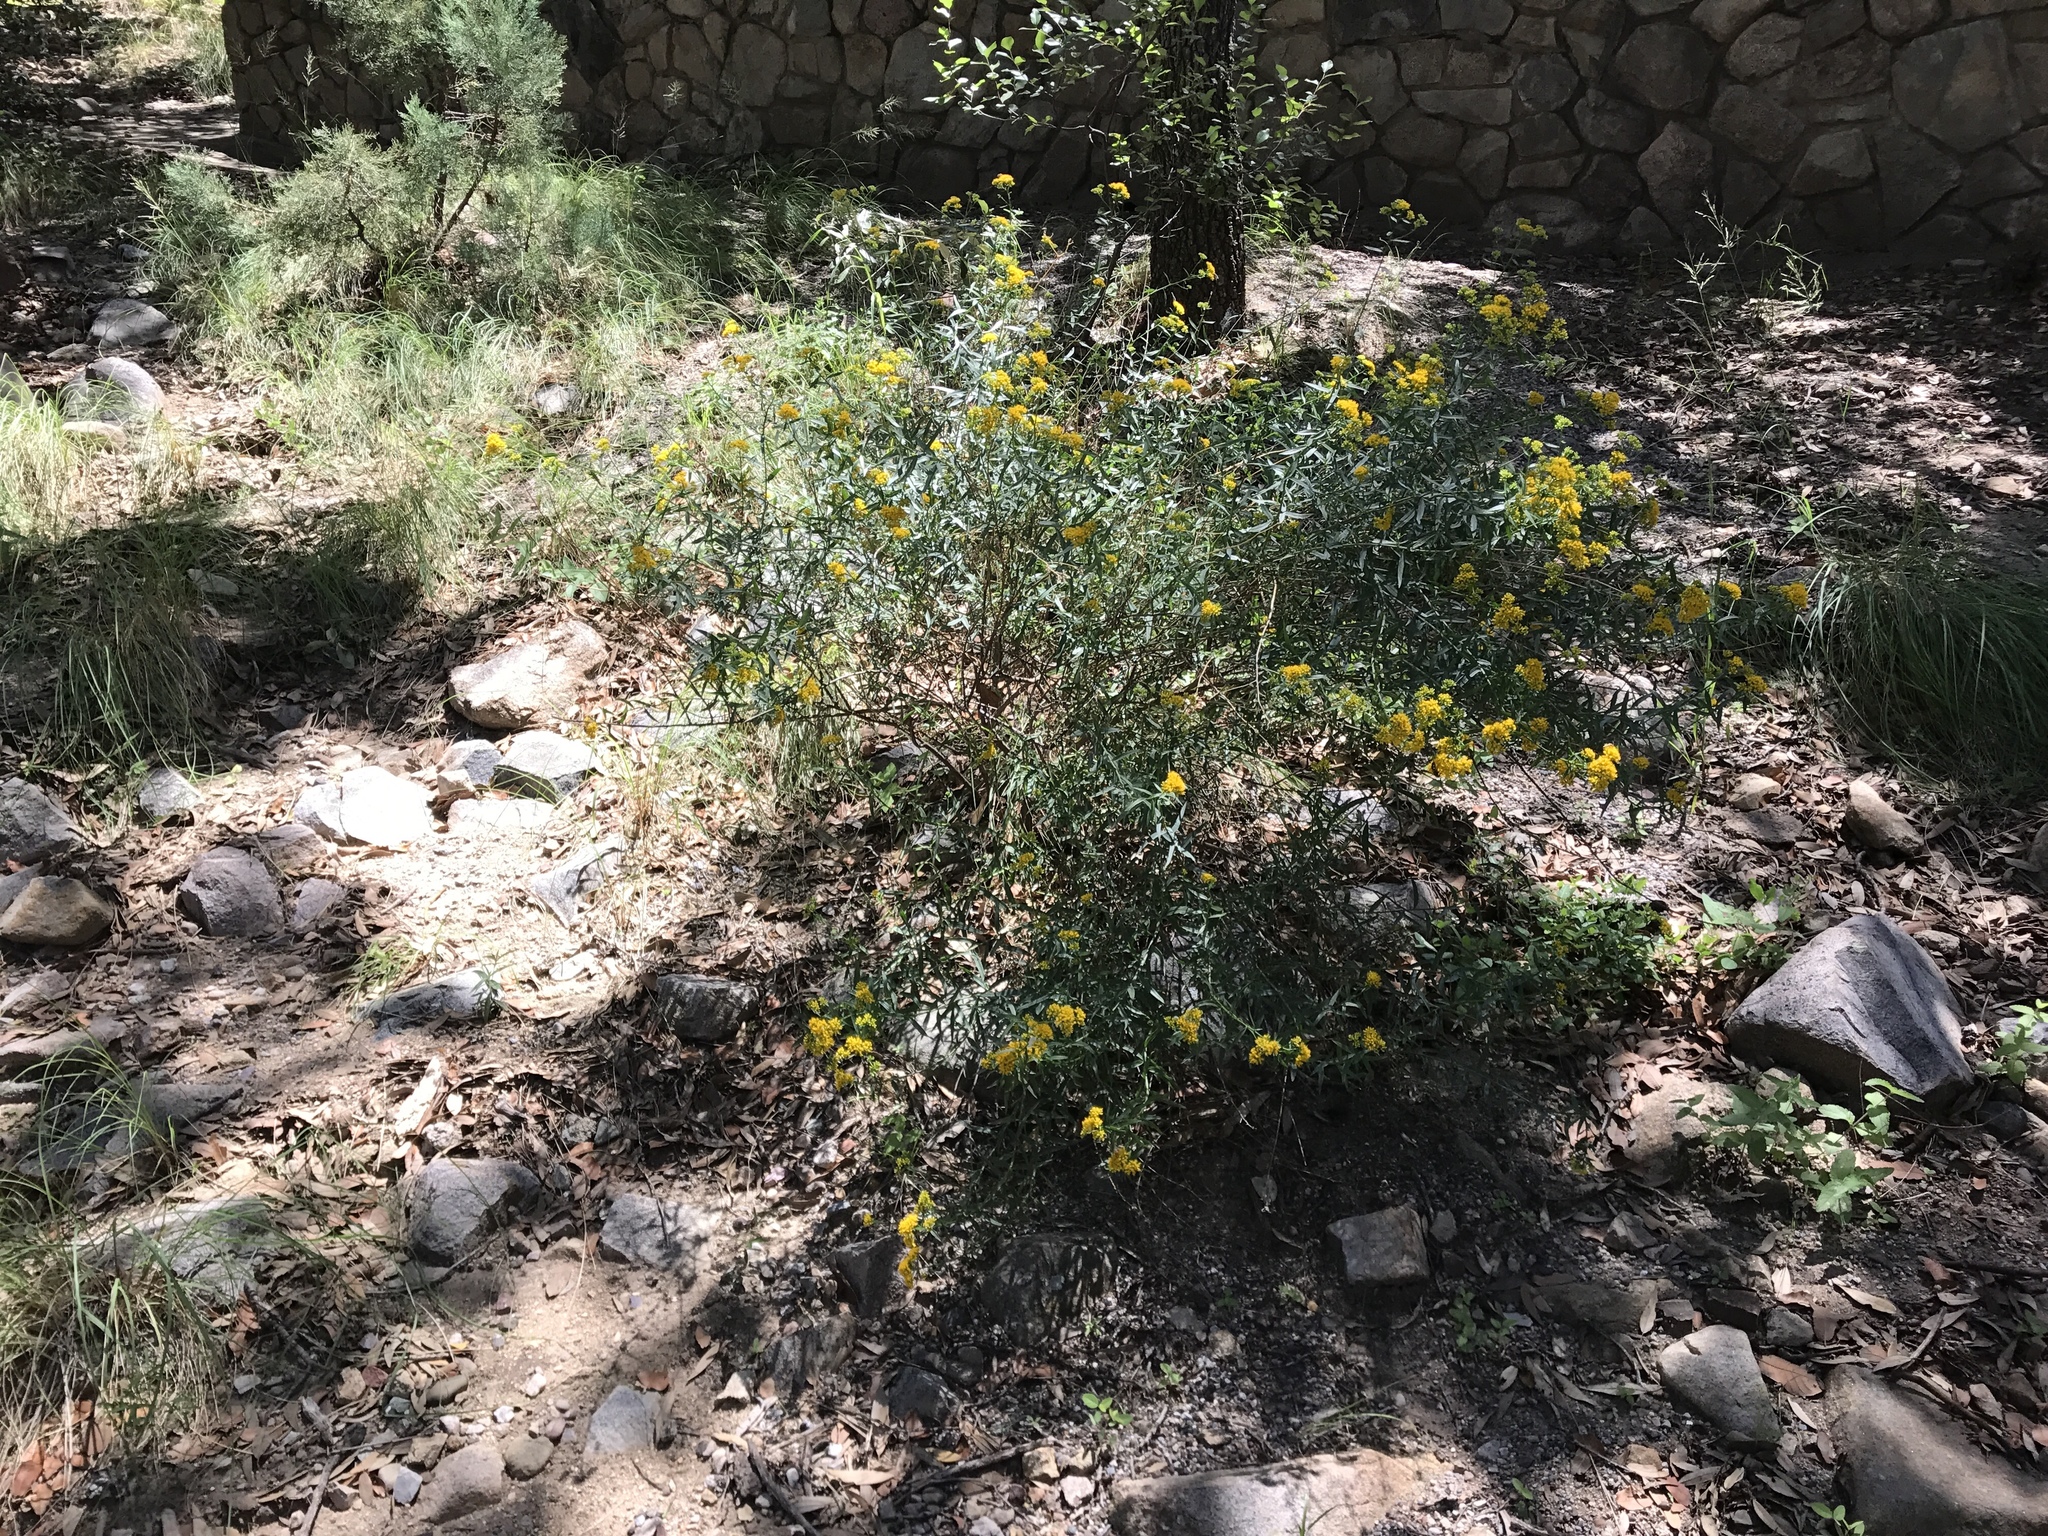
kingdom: Plantae
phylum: Tracheophyta
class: Magnoliopsida
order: Asterales
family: Asteraceae
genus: Gymnosperma
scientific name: Gymnosperma glutinosum
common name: Gumhead
